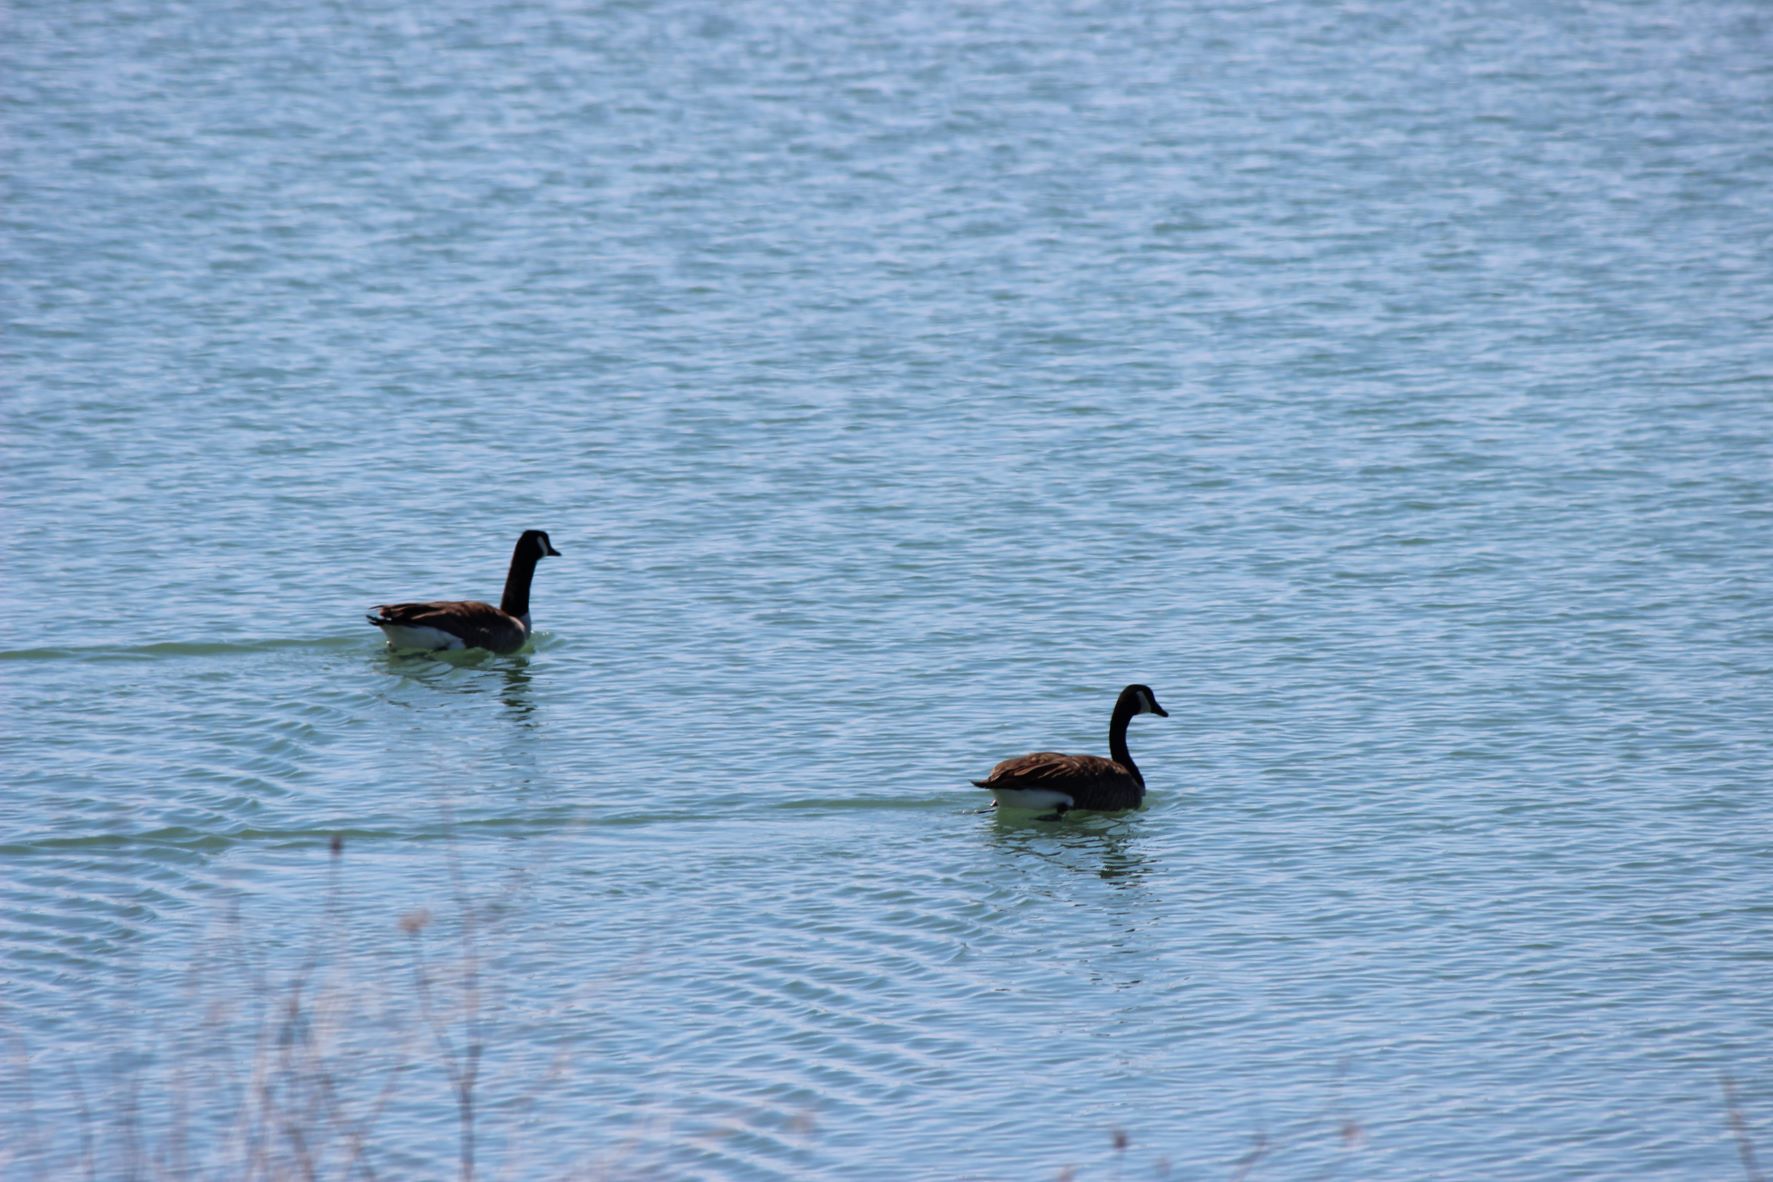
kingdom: Animalia
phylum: Chordata
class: Aves
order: Anseriformes
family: Anatidae
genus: Branta
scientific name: Branta canadensis
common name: Canada goose
